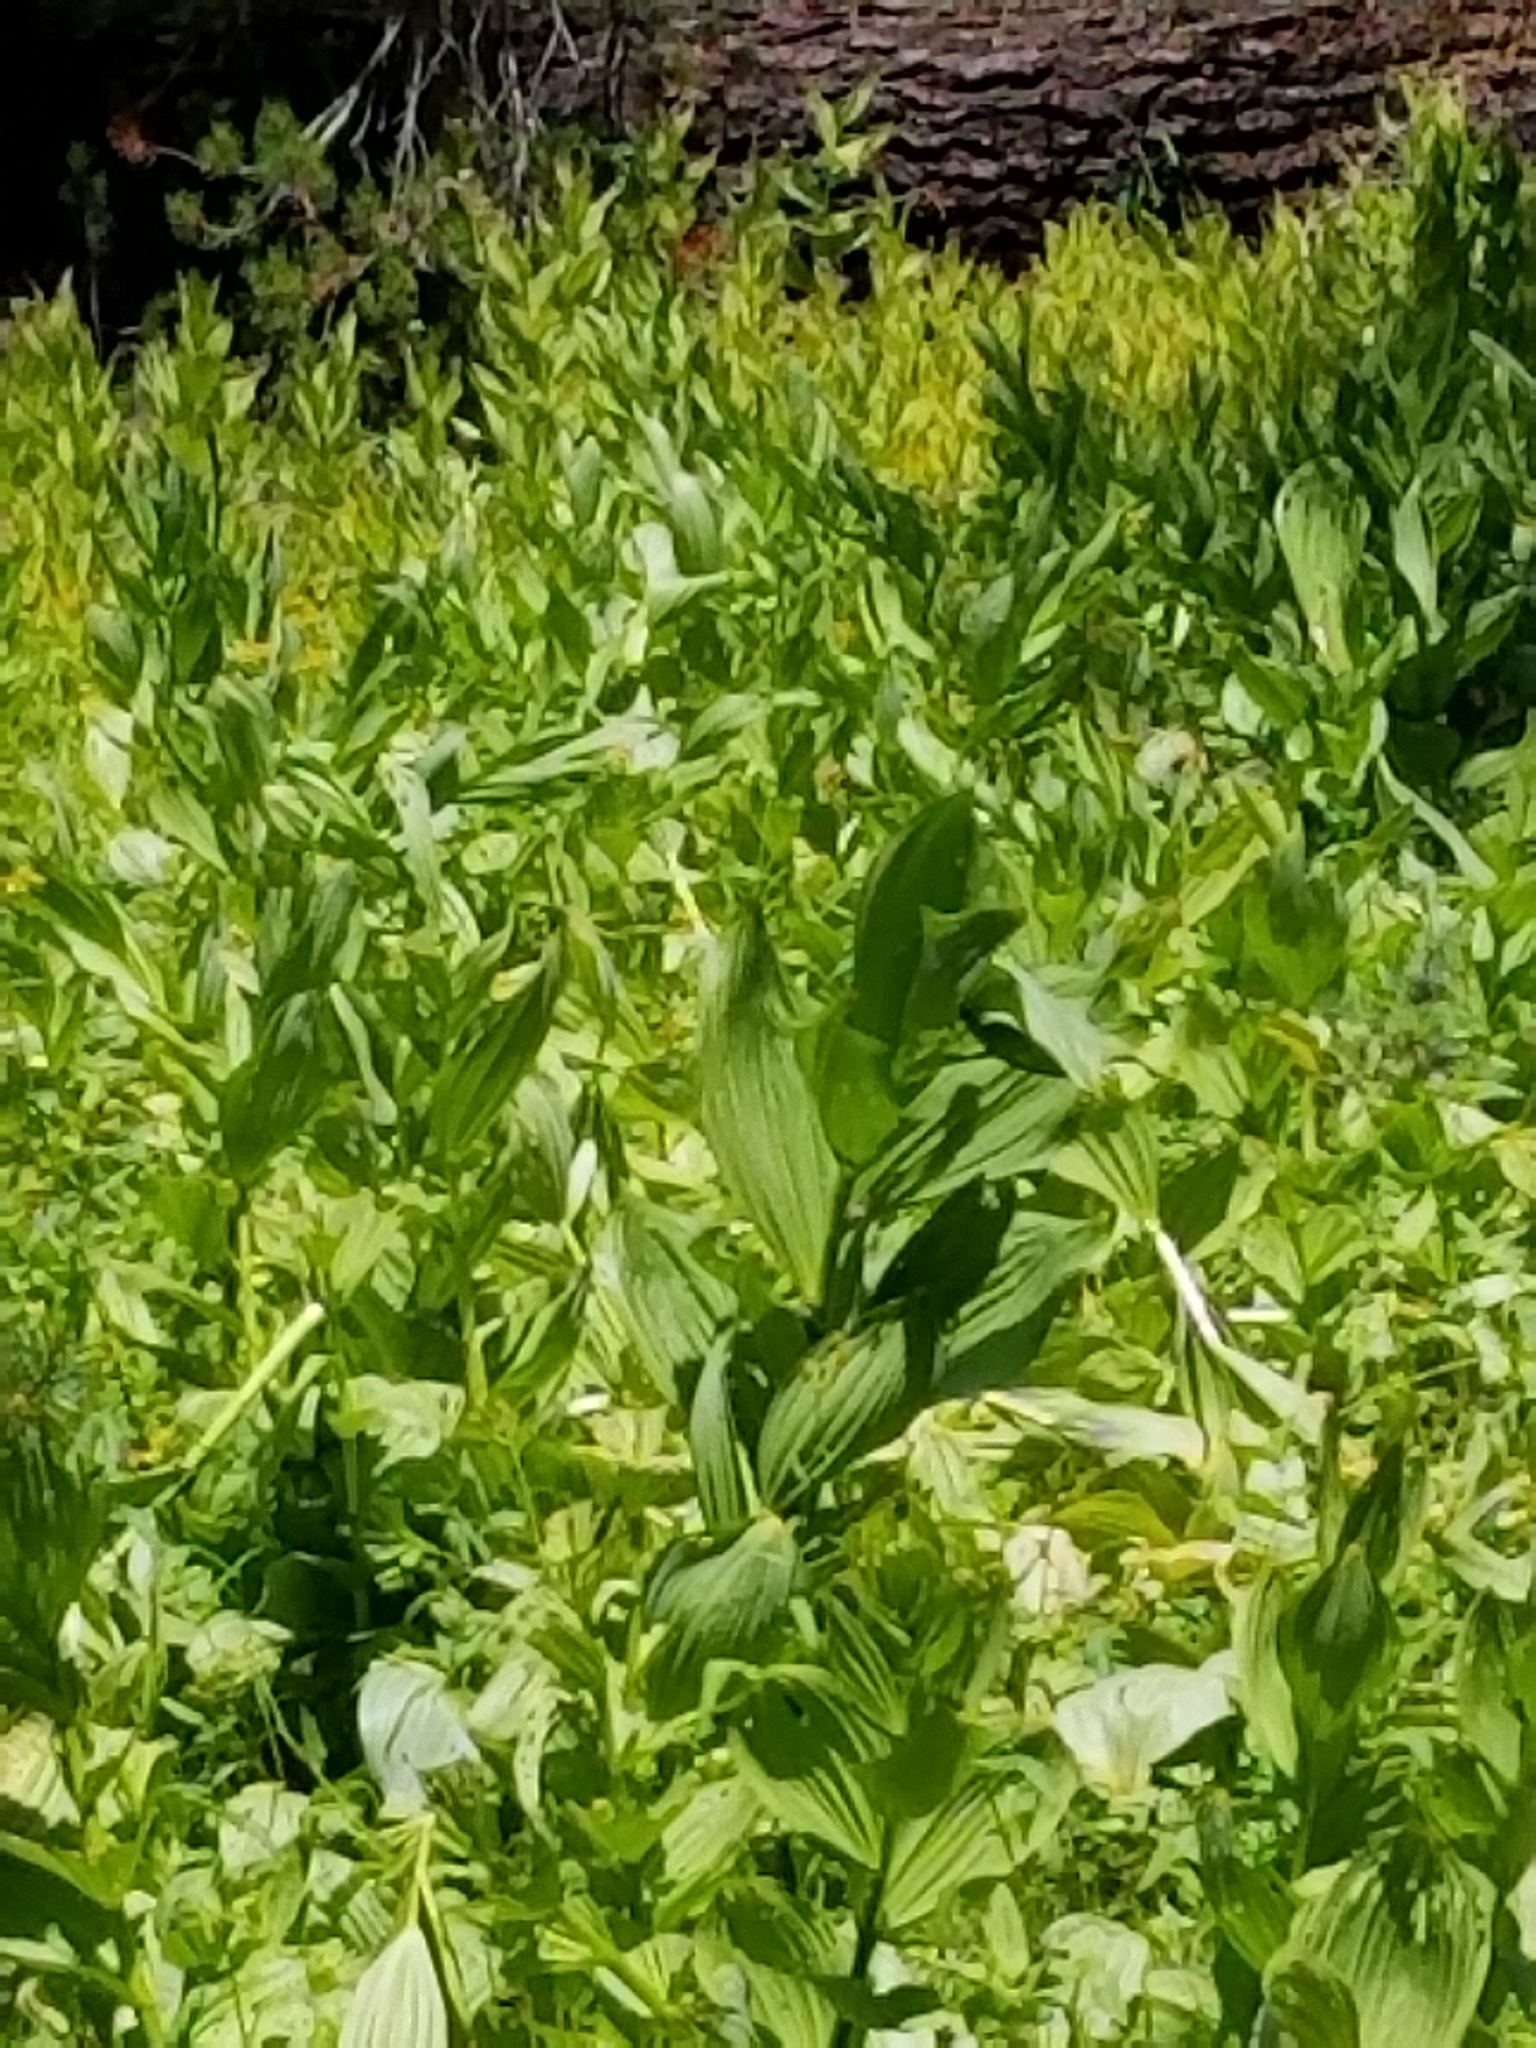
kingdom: Plantae
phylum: Tracheophyta
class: Liliopsida
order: Liliales
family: Melanthiaceae
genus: Veratrum
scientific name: Veratrum californicum
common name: California veratrum
